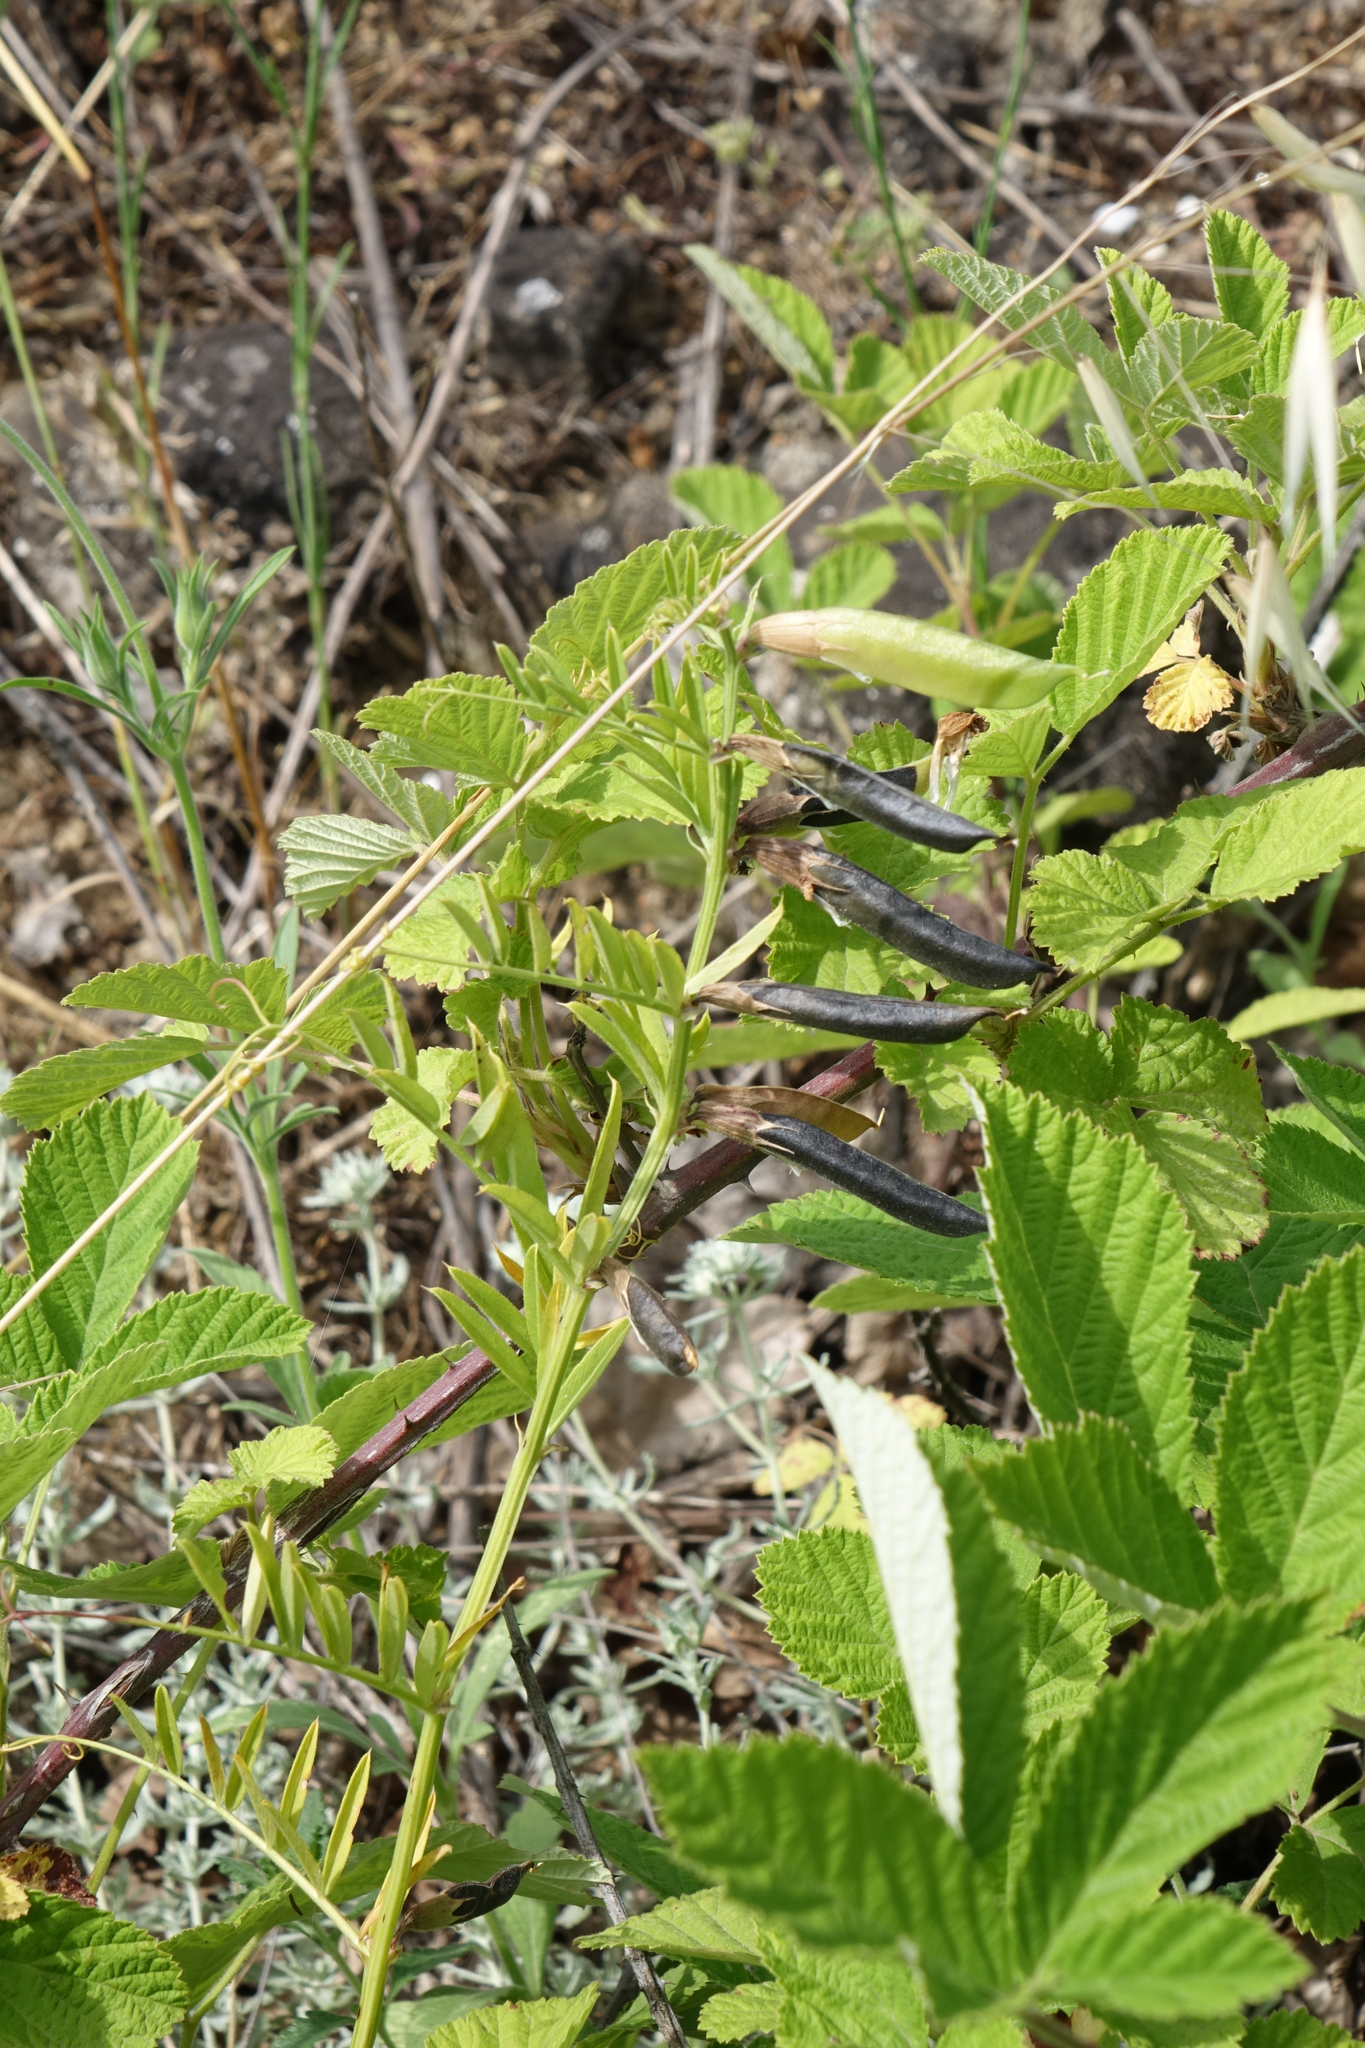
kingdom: Plantae
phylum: Tracheophyta
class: Magnoliopsida
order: Fabales
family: Fabaceae
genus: Vicia
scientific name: Vicia grandiflora
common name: Large yellow vetch
